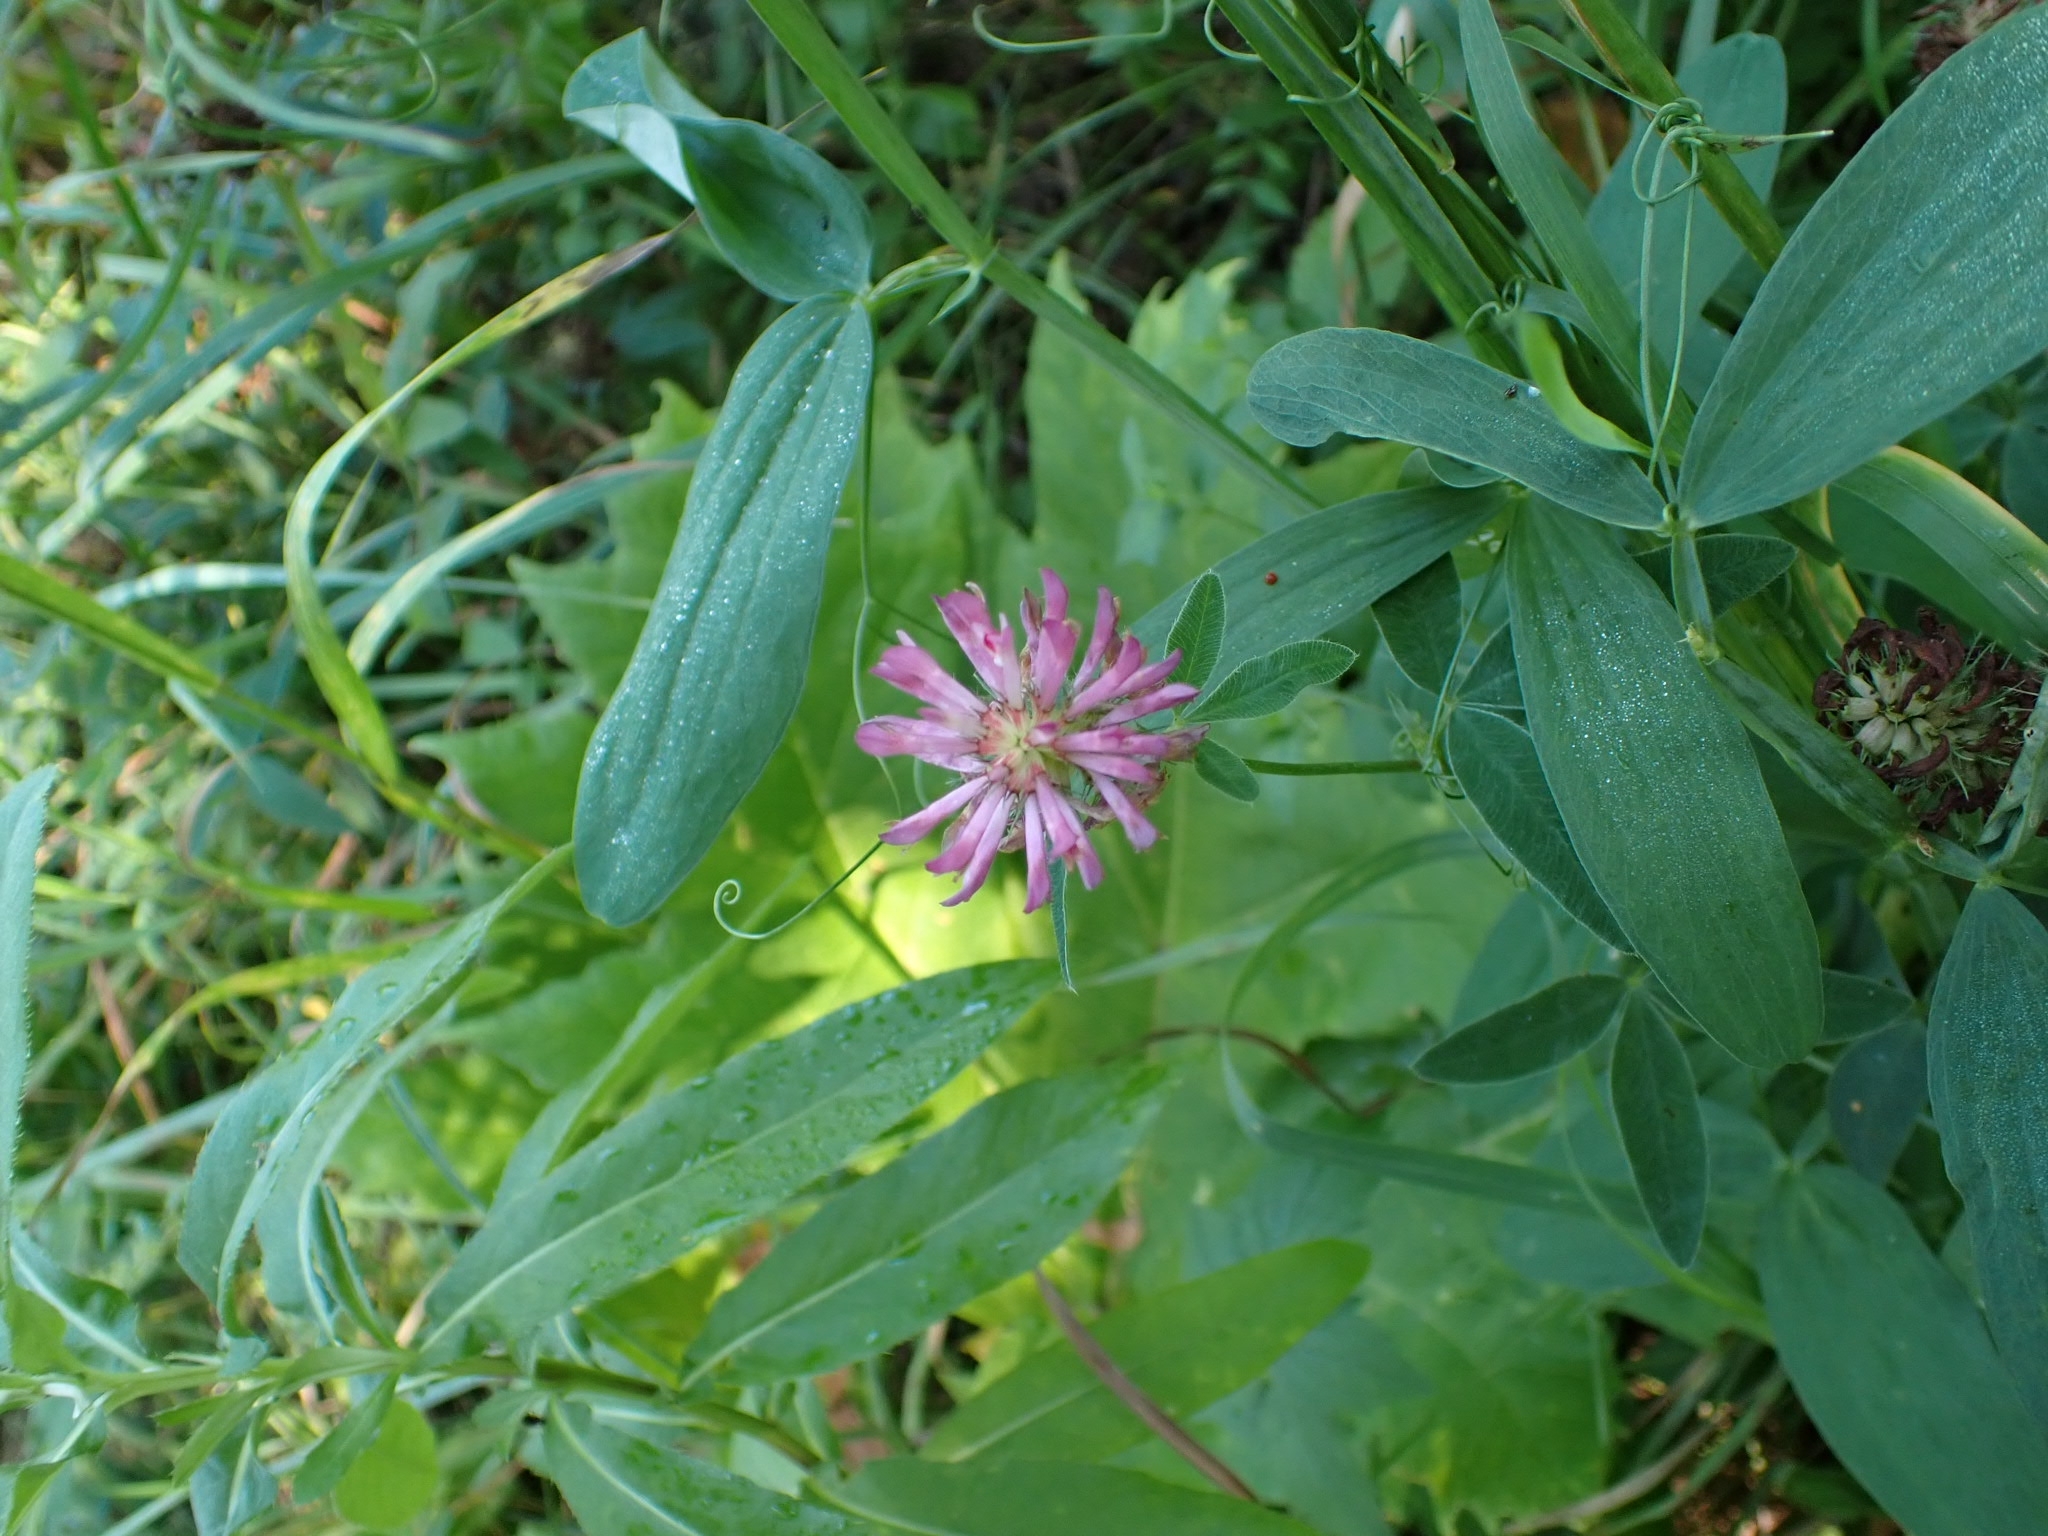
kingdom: Plantae
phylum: Tracheophyta
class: Magnoliopsida
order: Fabales
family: Fabaceae
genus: Trifolium
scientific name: Trifolium medium
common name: Zigzag clover
